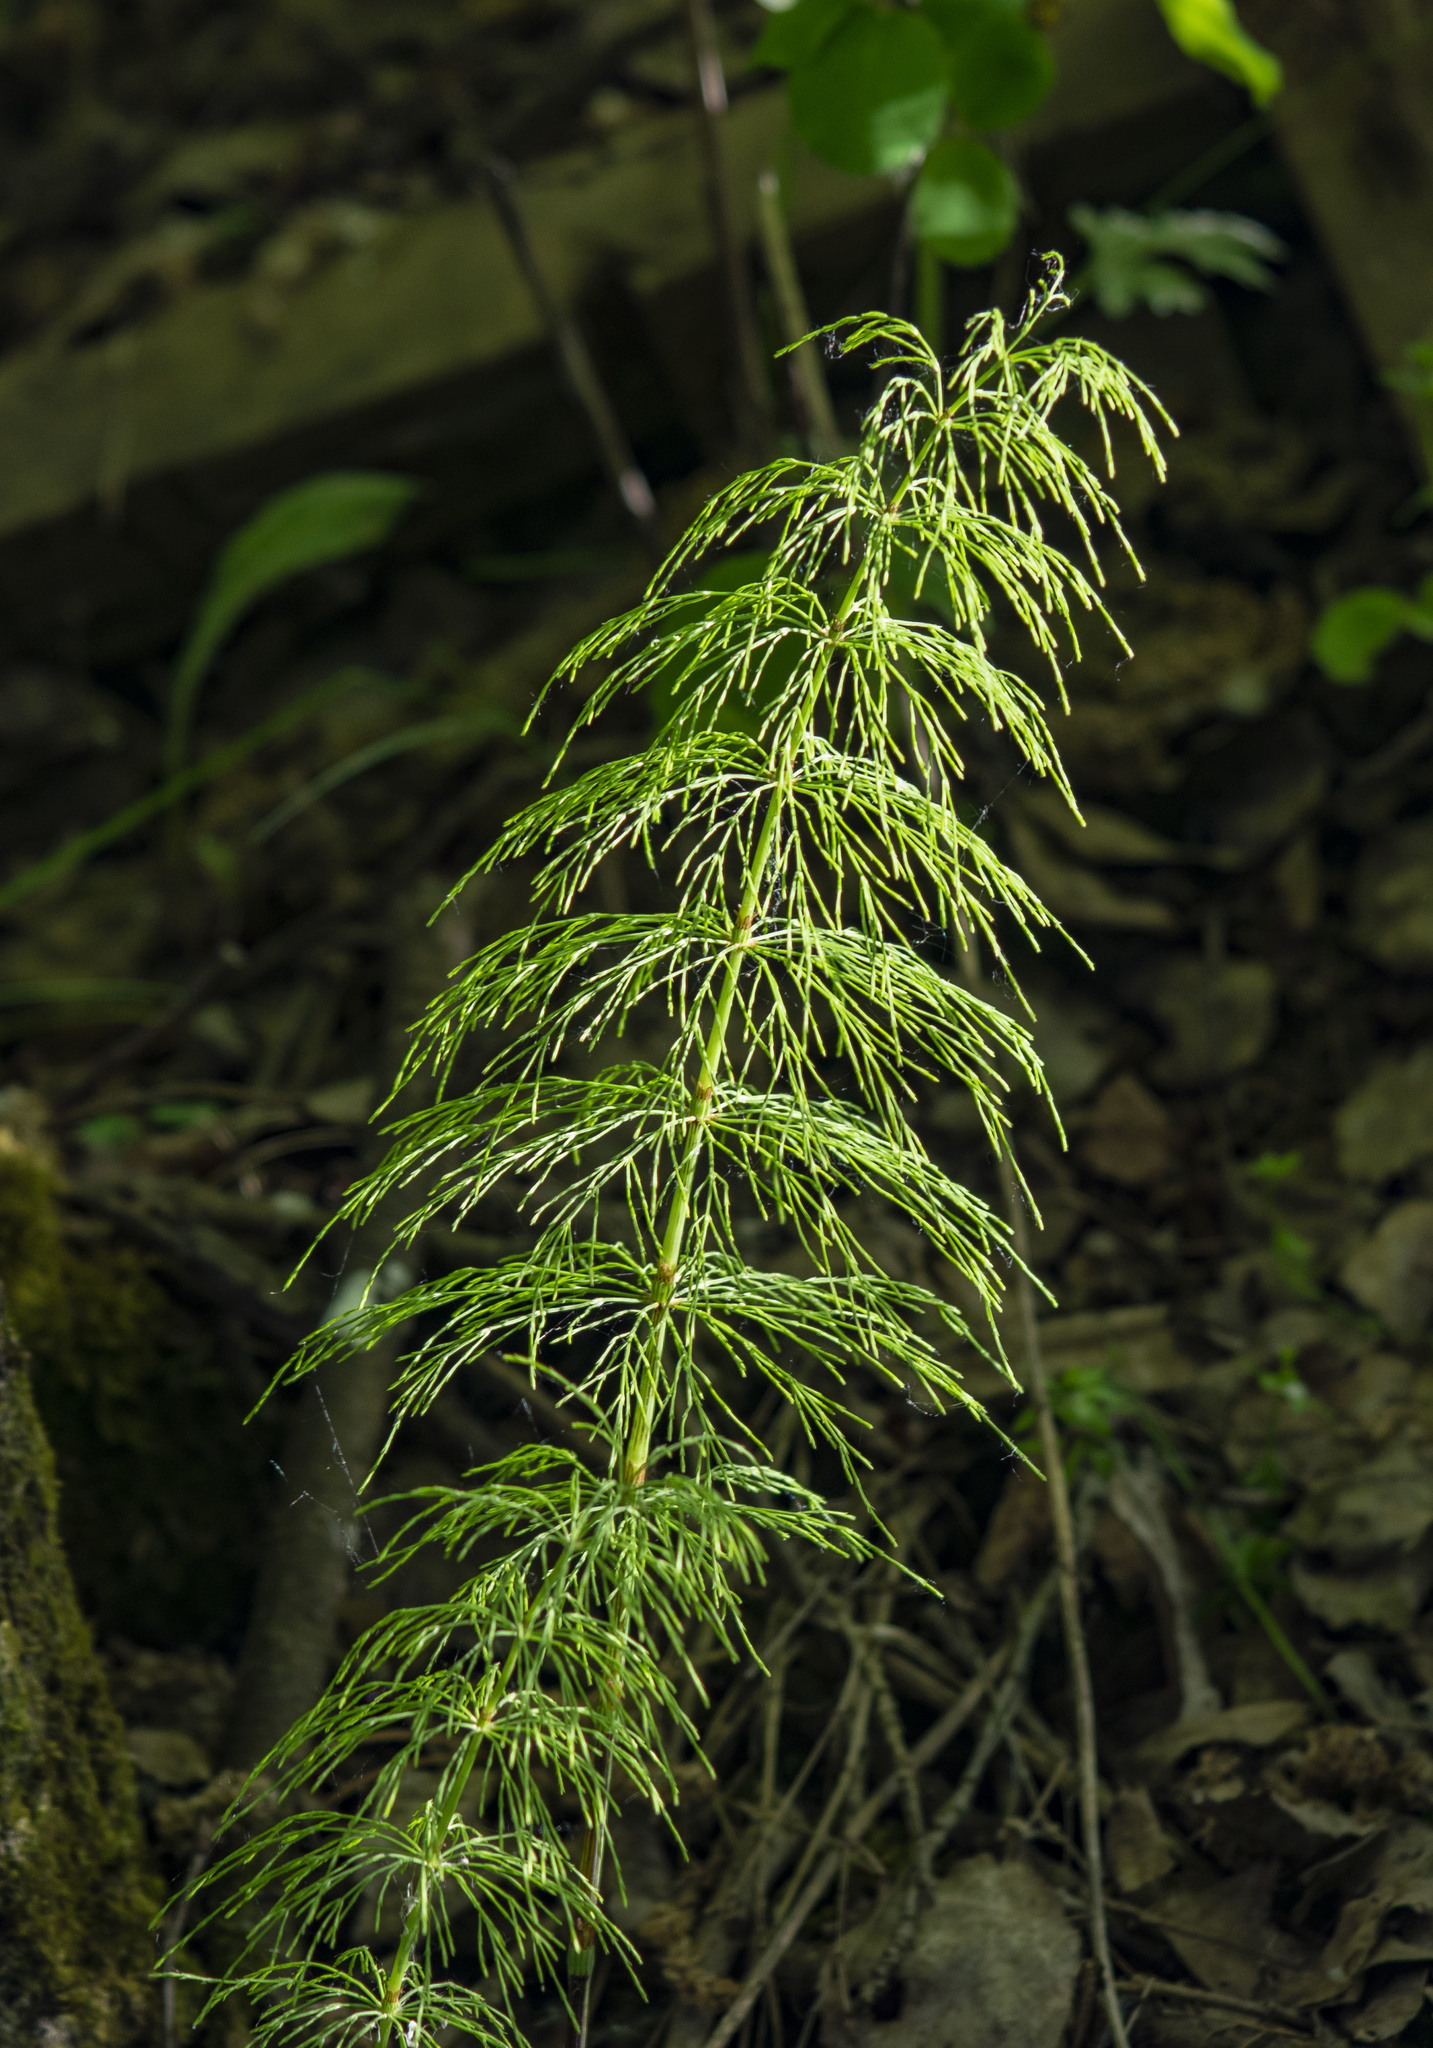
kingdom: Plantae
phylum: Tracheophyta
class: Polypodiopsida
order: Equisetales
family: Equisetaceae
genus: Equisetum
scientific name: Equisetum sylvaticum
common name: Wood horsetail
